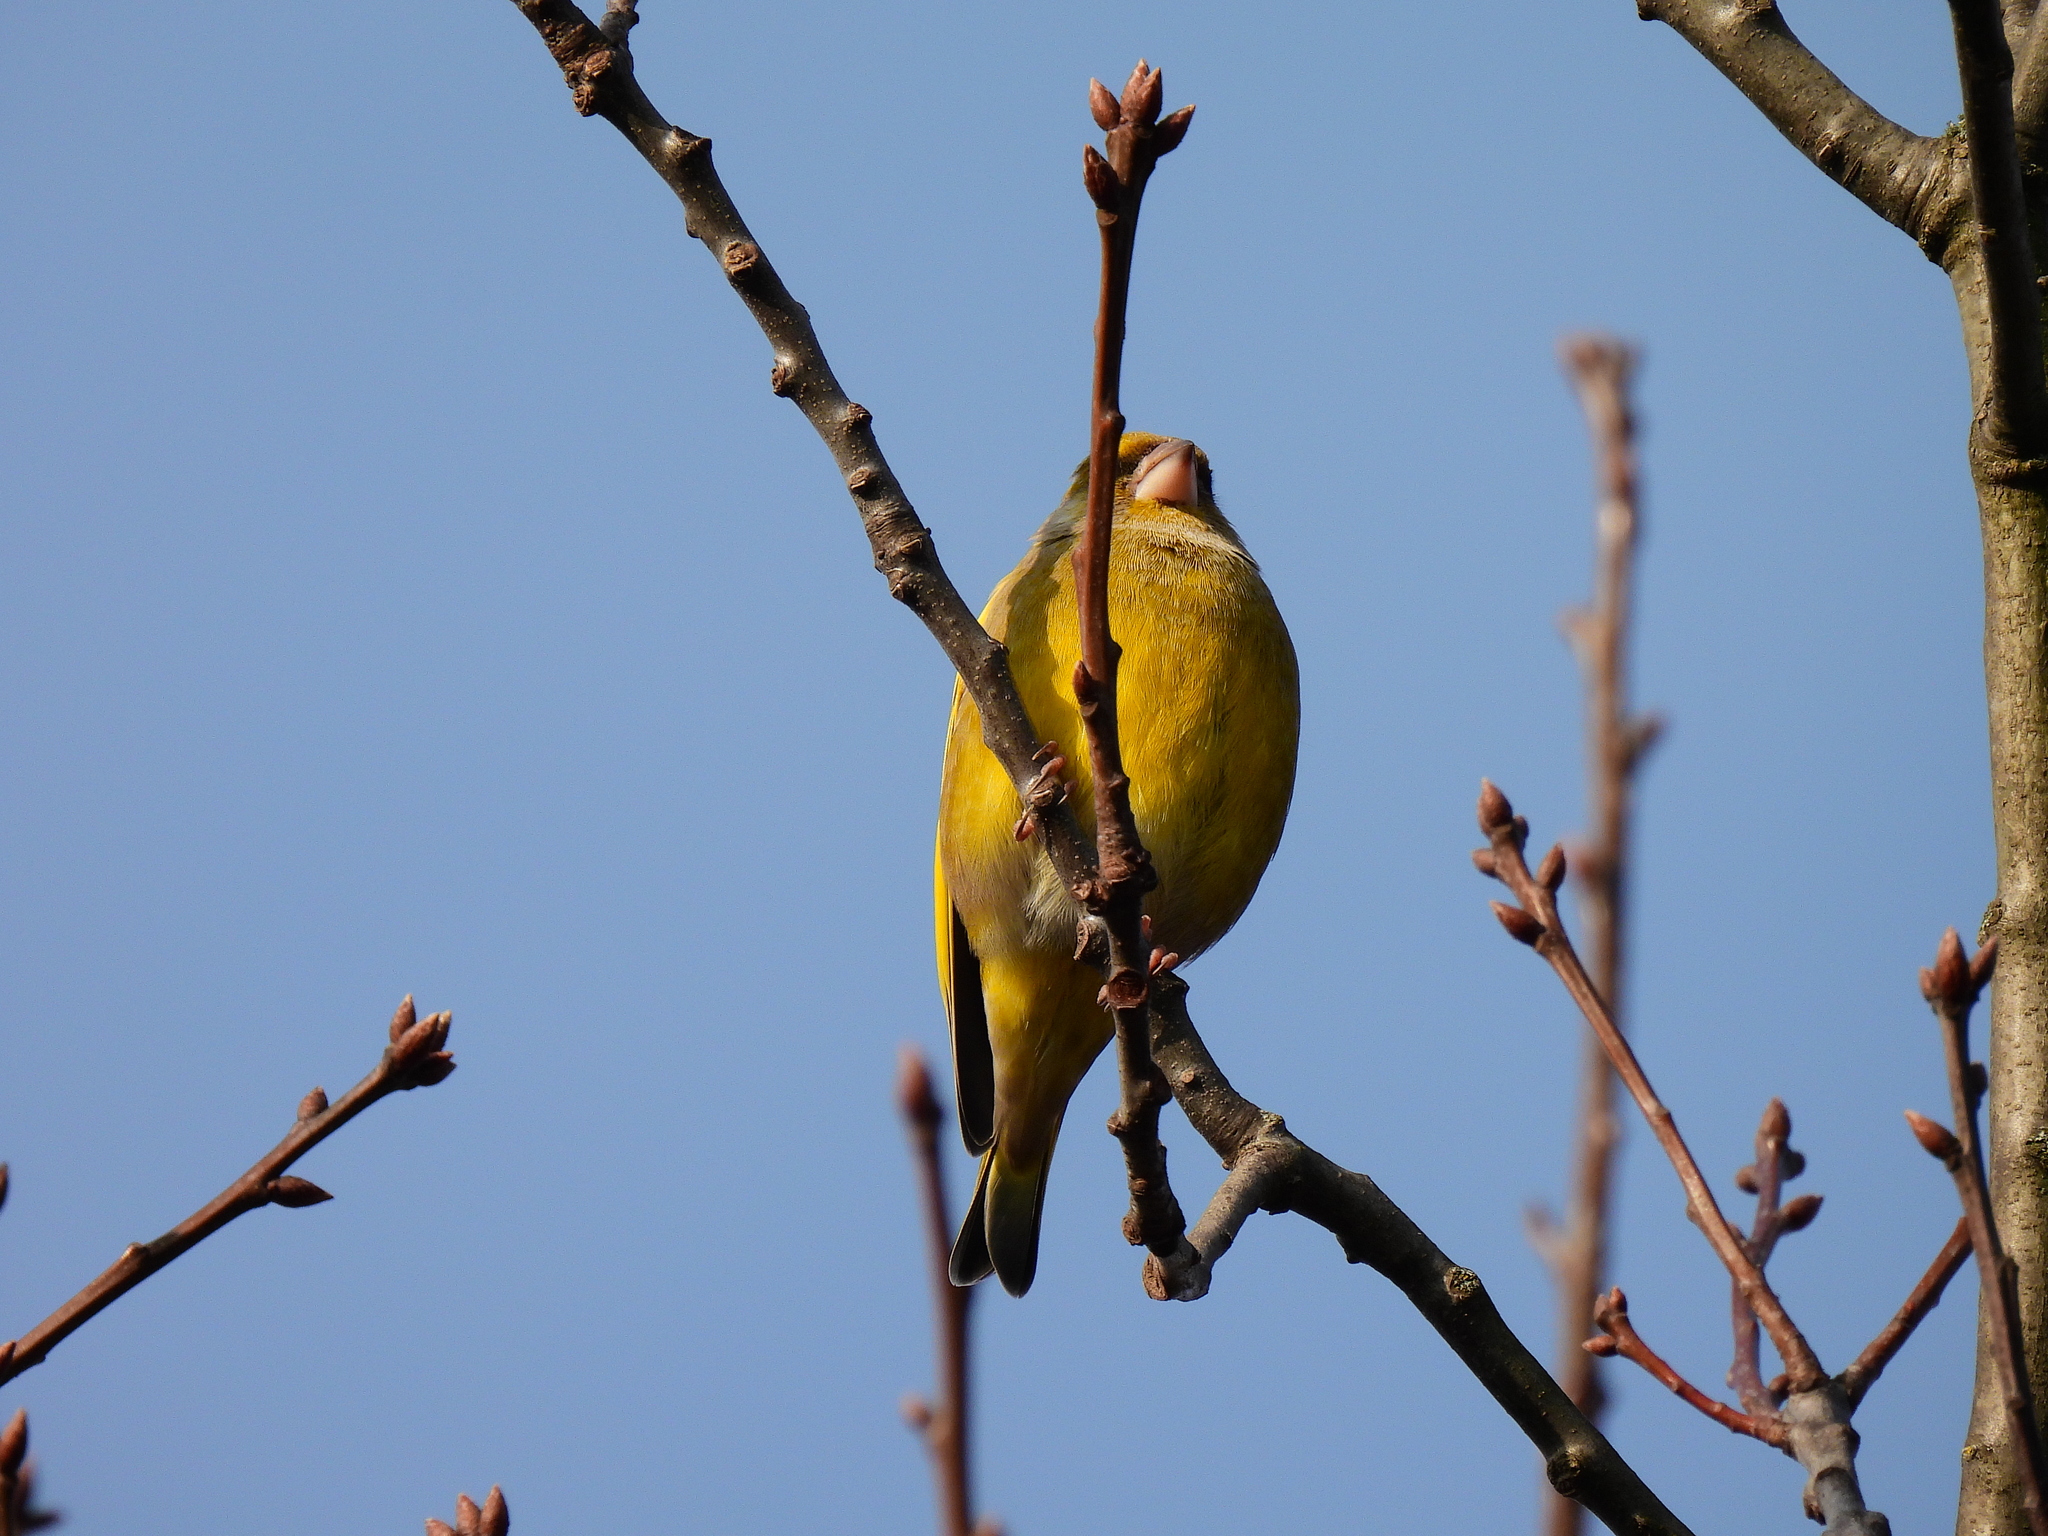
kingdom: Plantae
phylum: Tracheophyta
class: Liliopsida
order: Poales
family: Poaceae
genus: Chloris
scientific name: Chloris chloris
